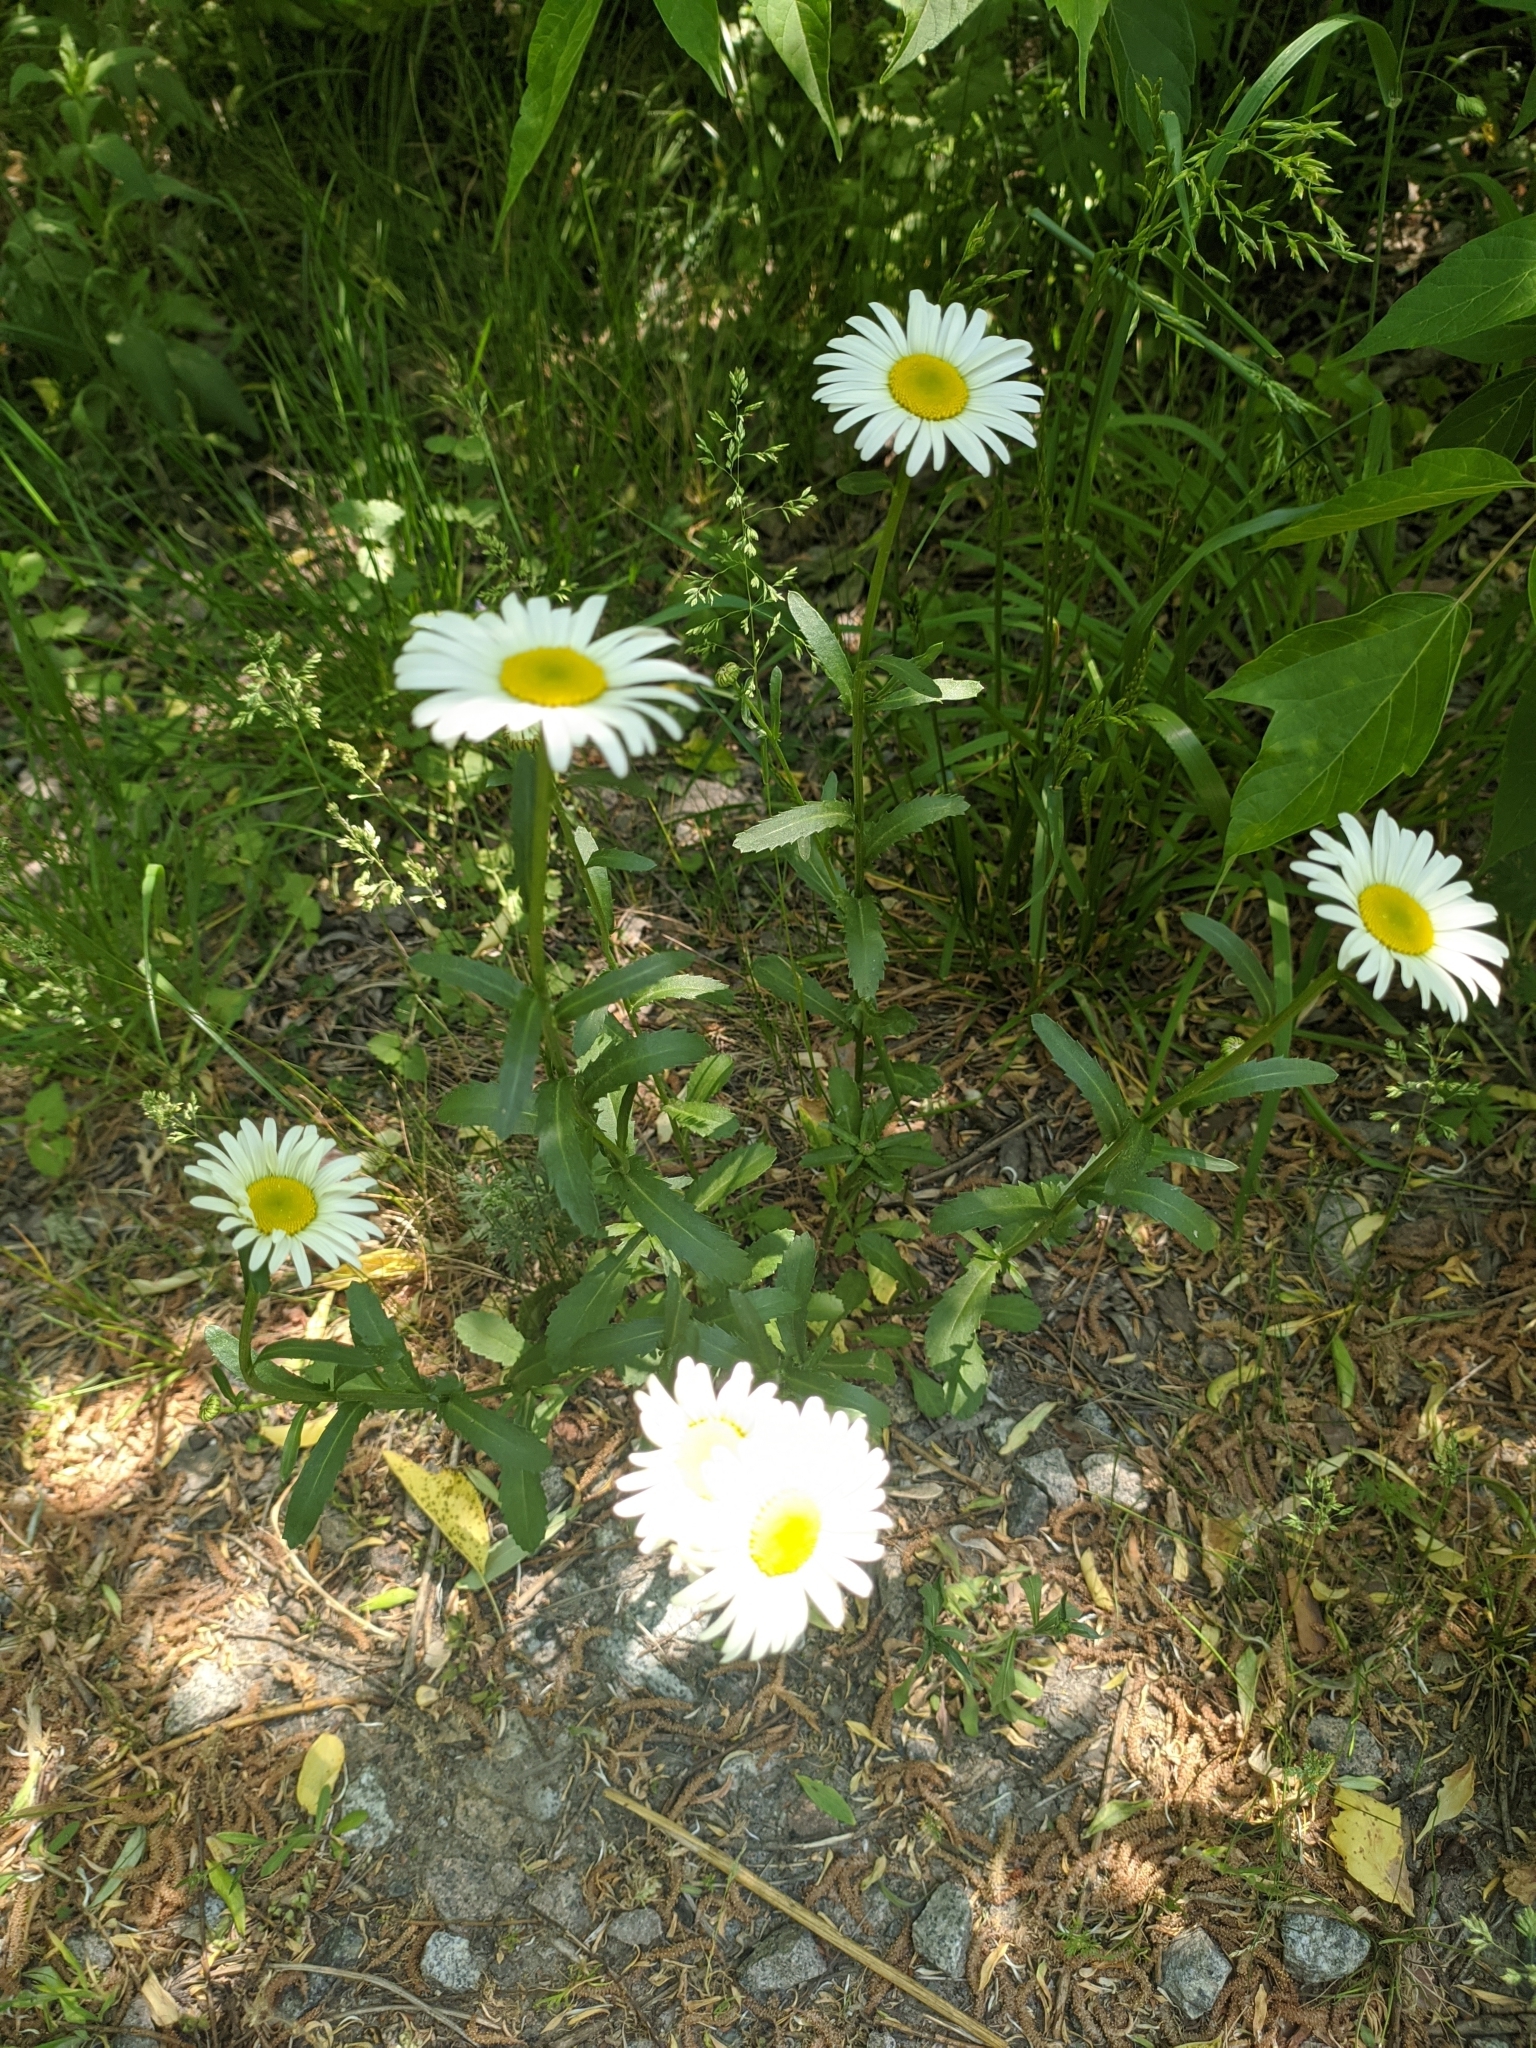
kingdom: Plantae
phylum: Tracheophyta
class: Magnoliopsida
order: Asterales
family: Asteraceae
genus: Leucanthemum
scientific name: Leucanthemum vulgare
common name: Oxeye daisy
